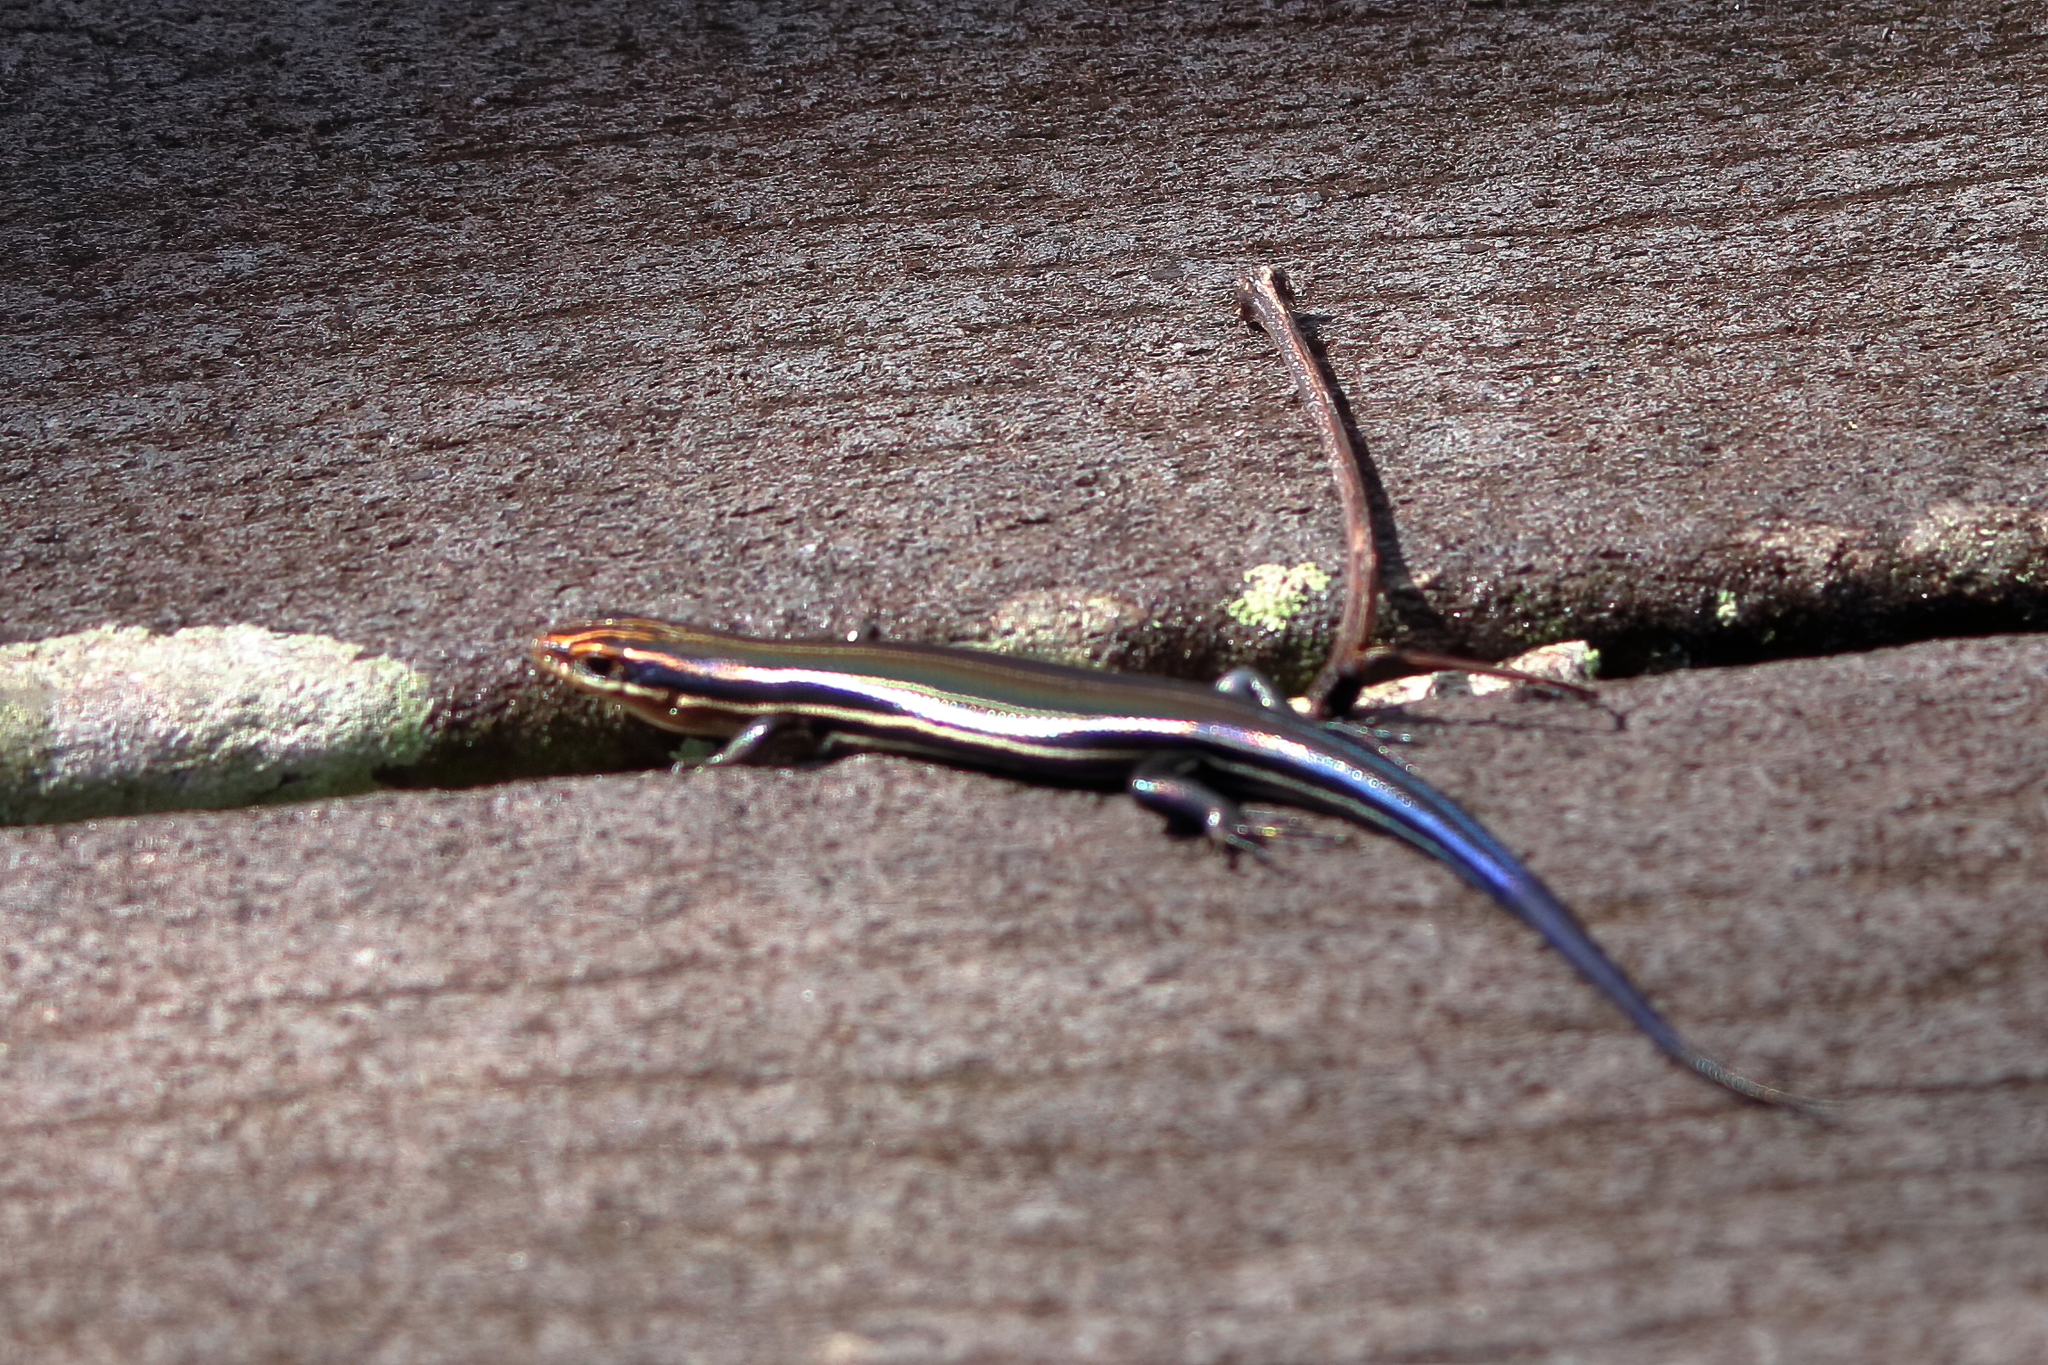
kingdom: Animalia
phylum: Chordata
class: Squamata
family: Scincidae
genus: Plestiodon
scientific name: Plestiodon inexpectatus
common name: Southeastern five-lined skink
